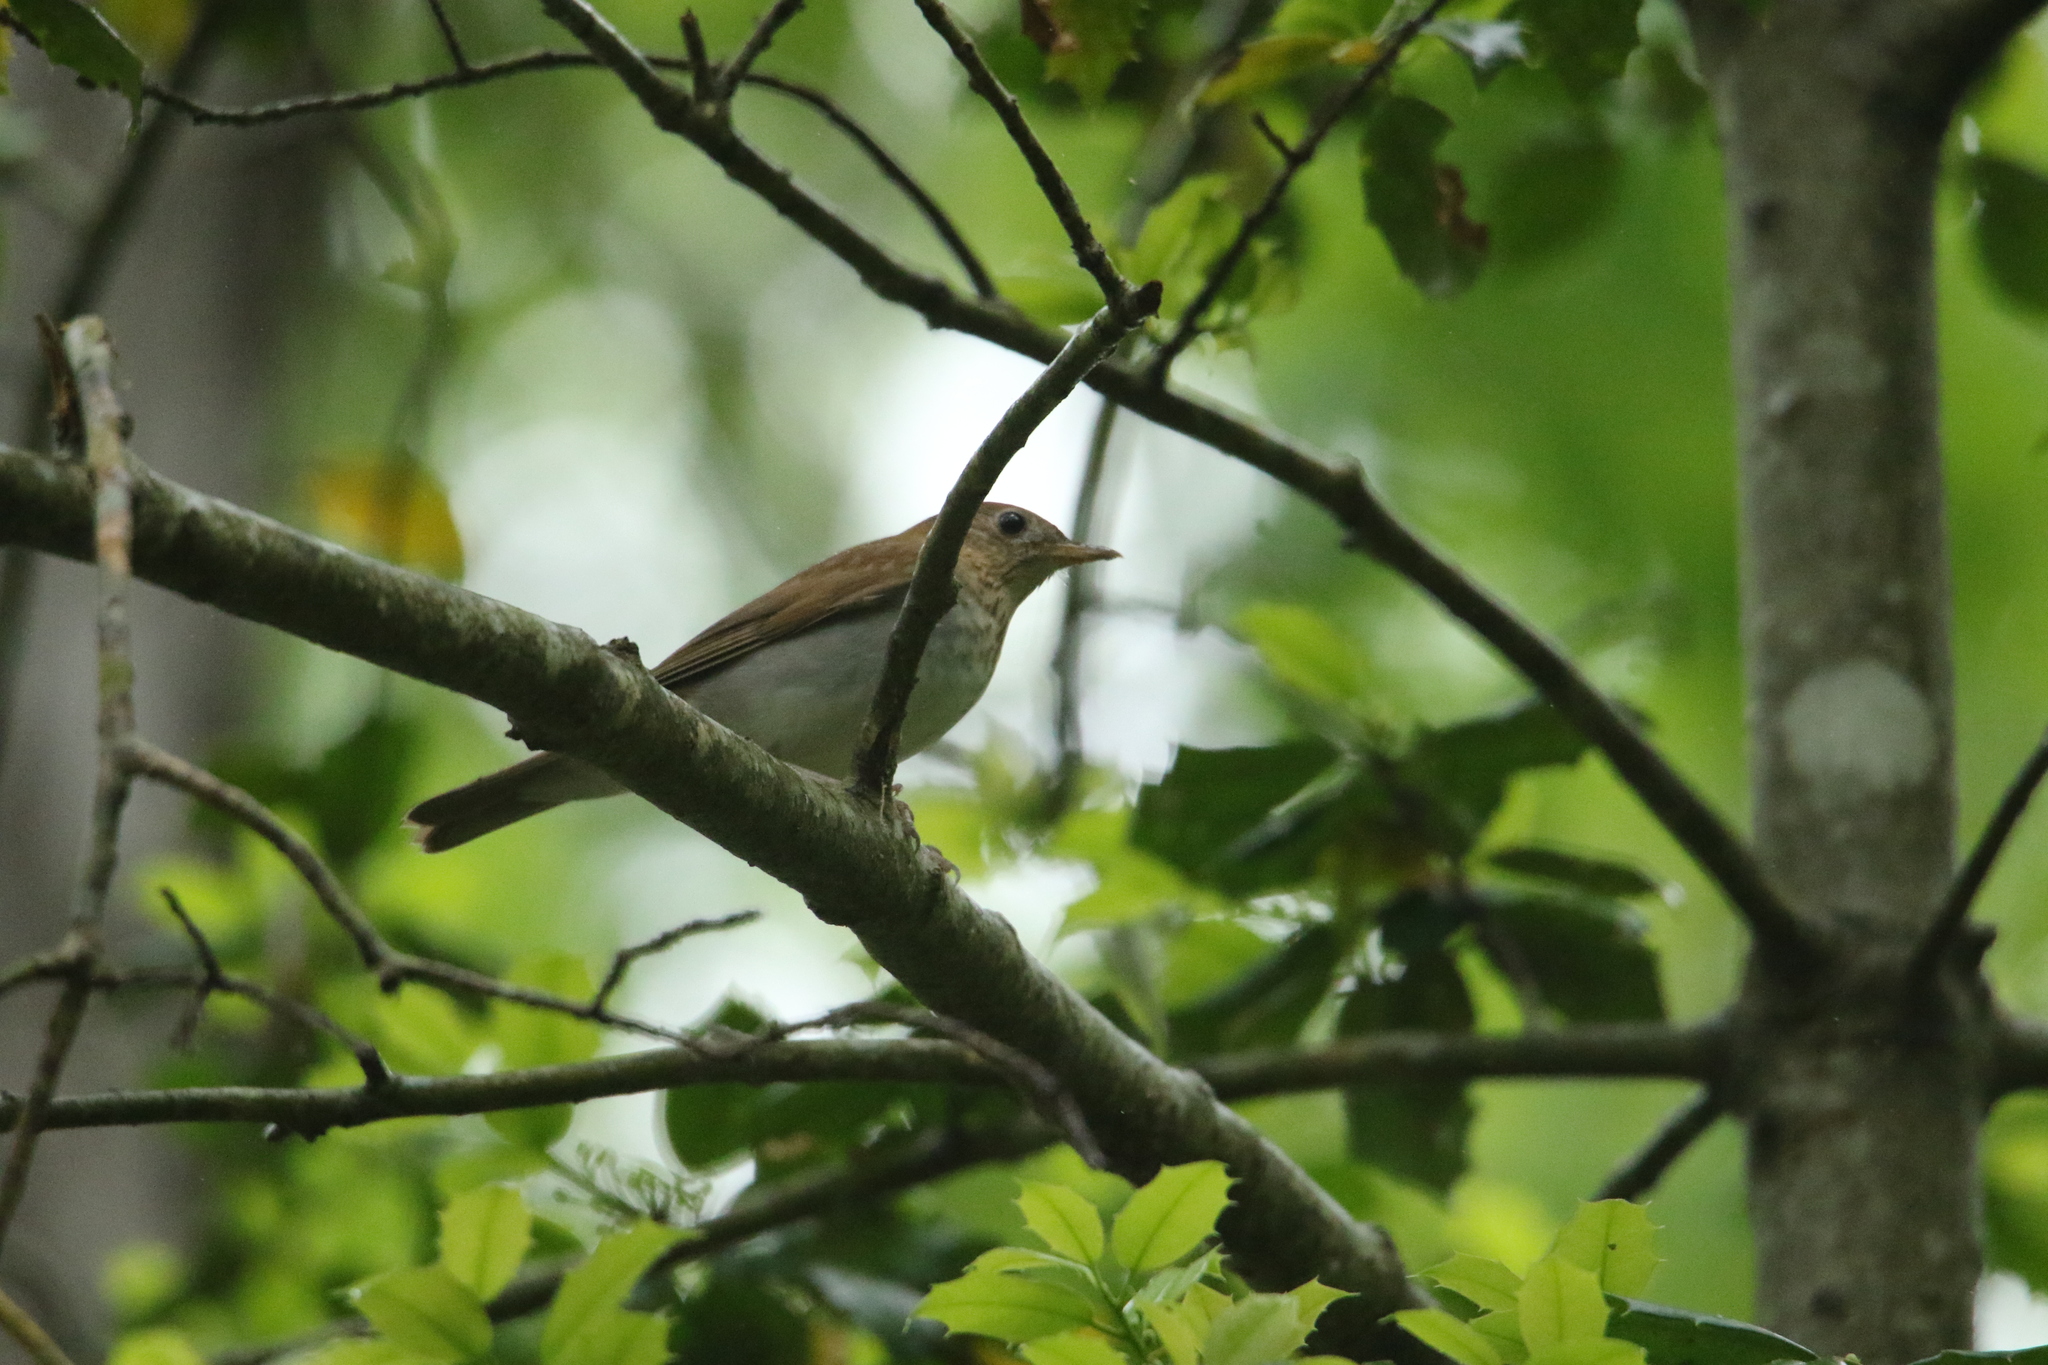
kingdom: Animalia
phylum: Chordata
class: Aves
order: Passeriformes
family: Turdidae
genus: Catharus
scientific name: Catharus fuscescens
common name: Veery
